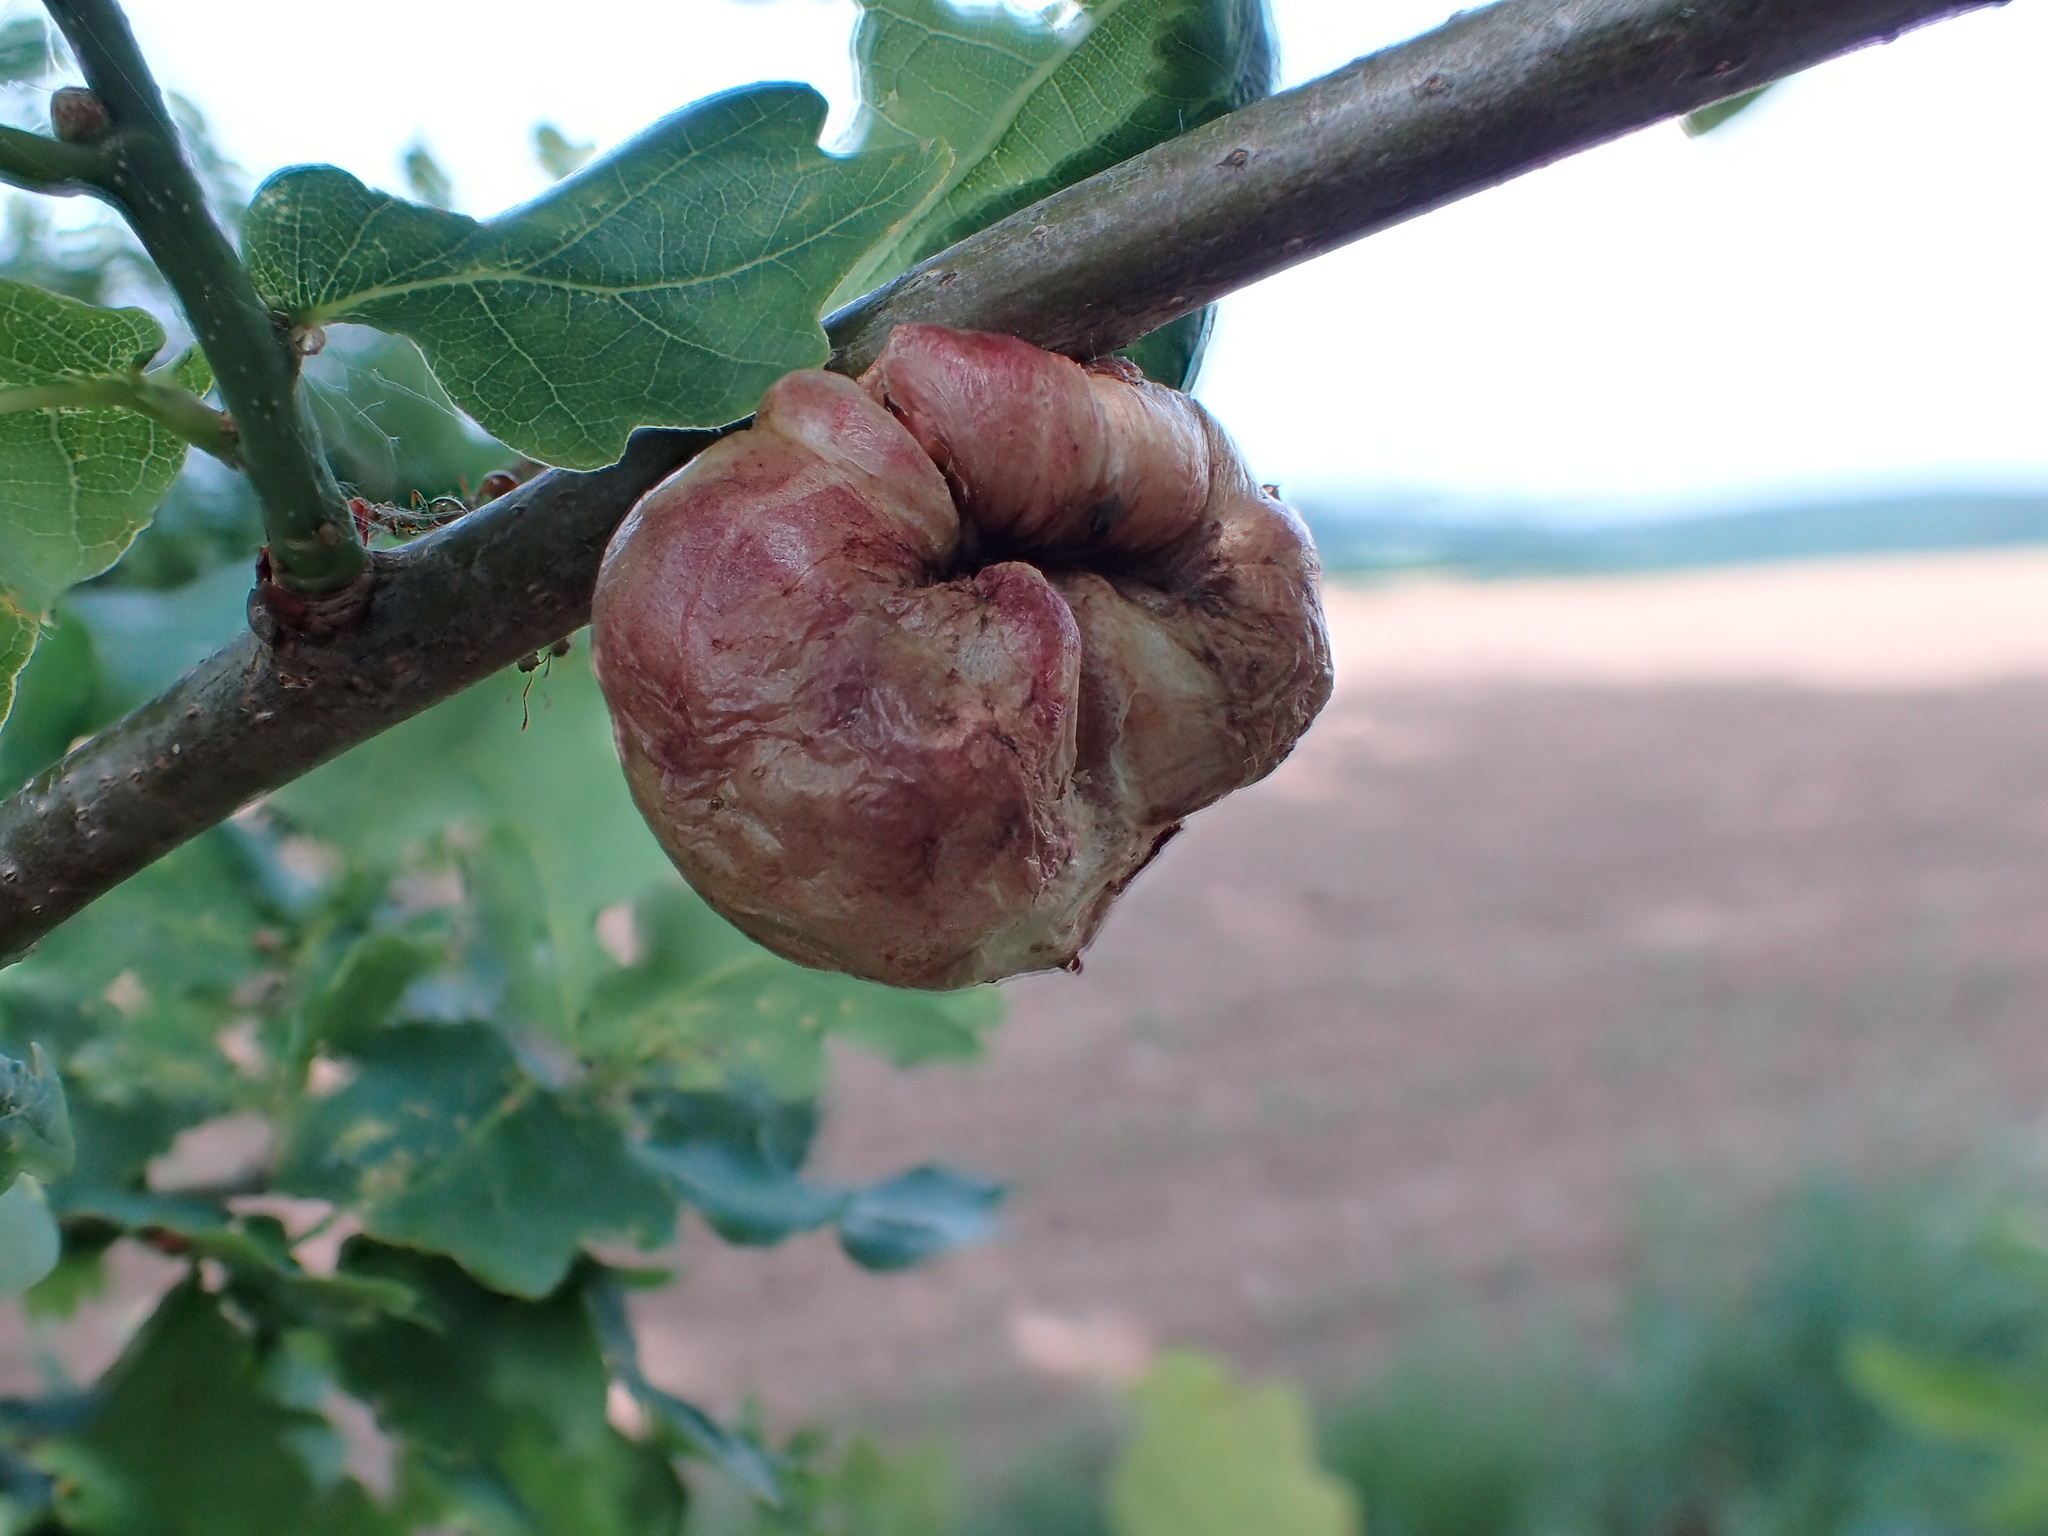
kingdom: Animalia
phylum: Arthropoda
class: Insecta
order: Hymenoptera
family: Cynipidae
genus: Biorhiza
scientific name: Biorhiza pallida
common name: Oak apple
